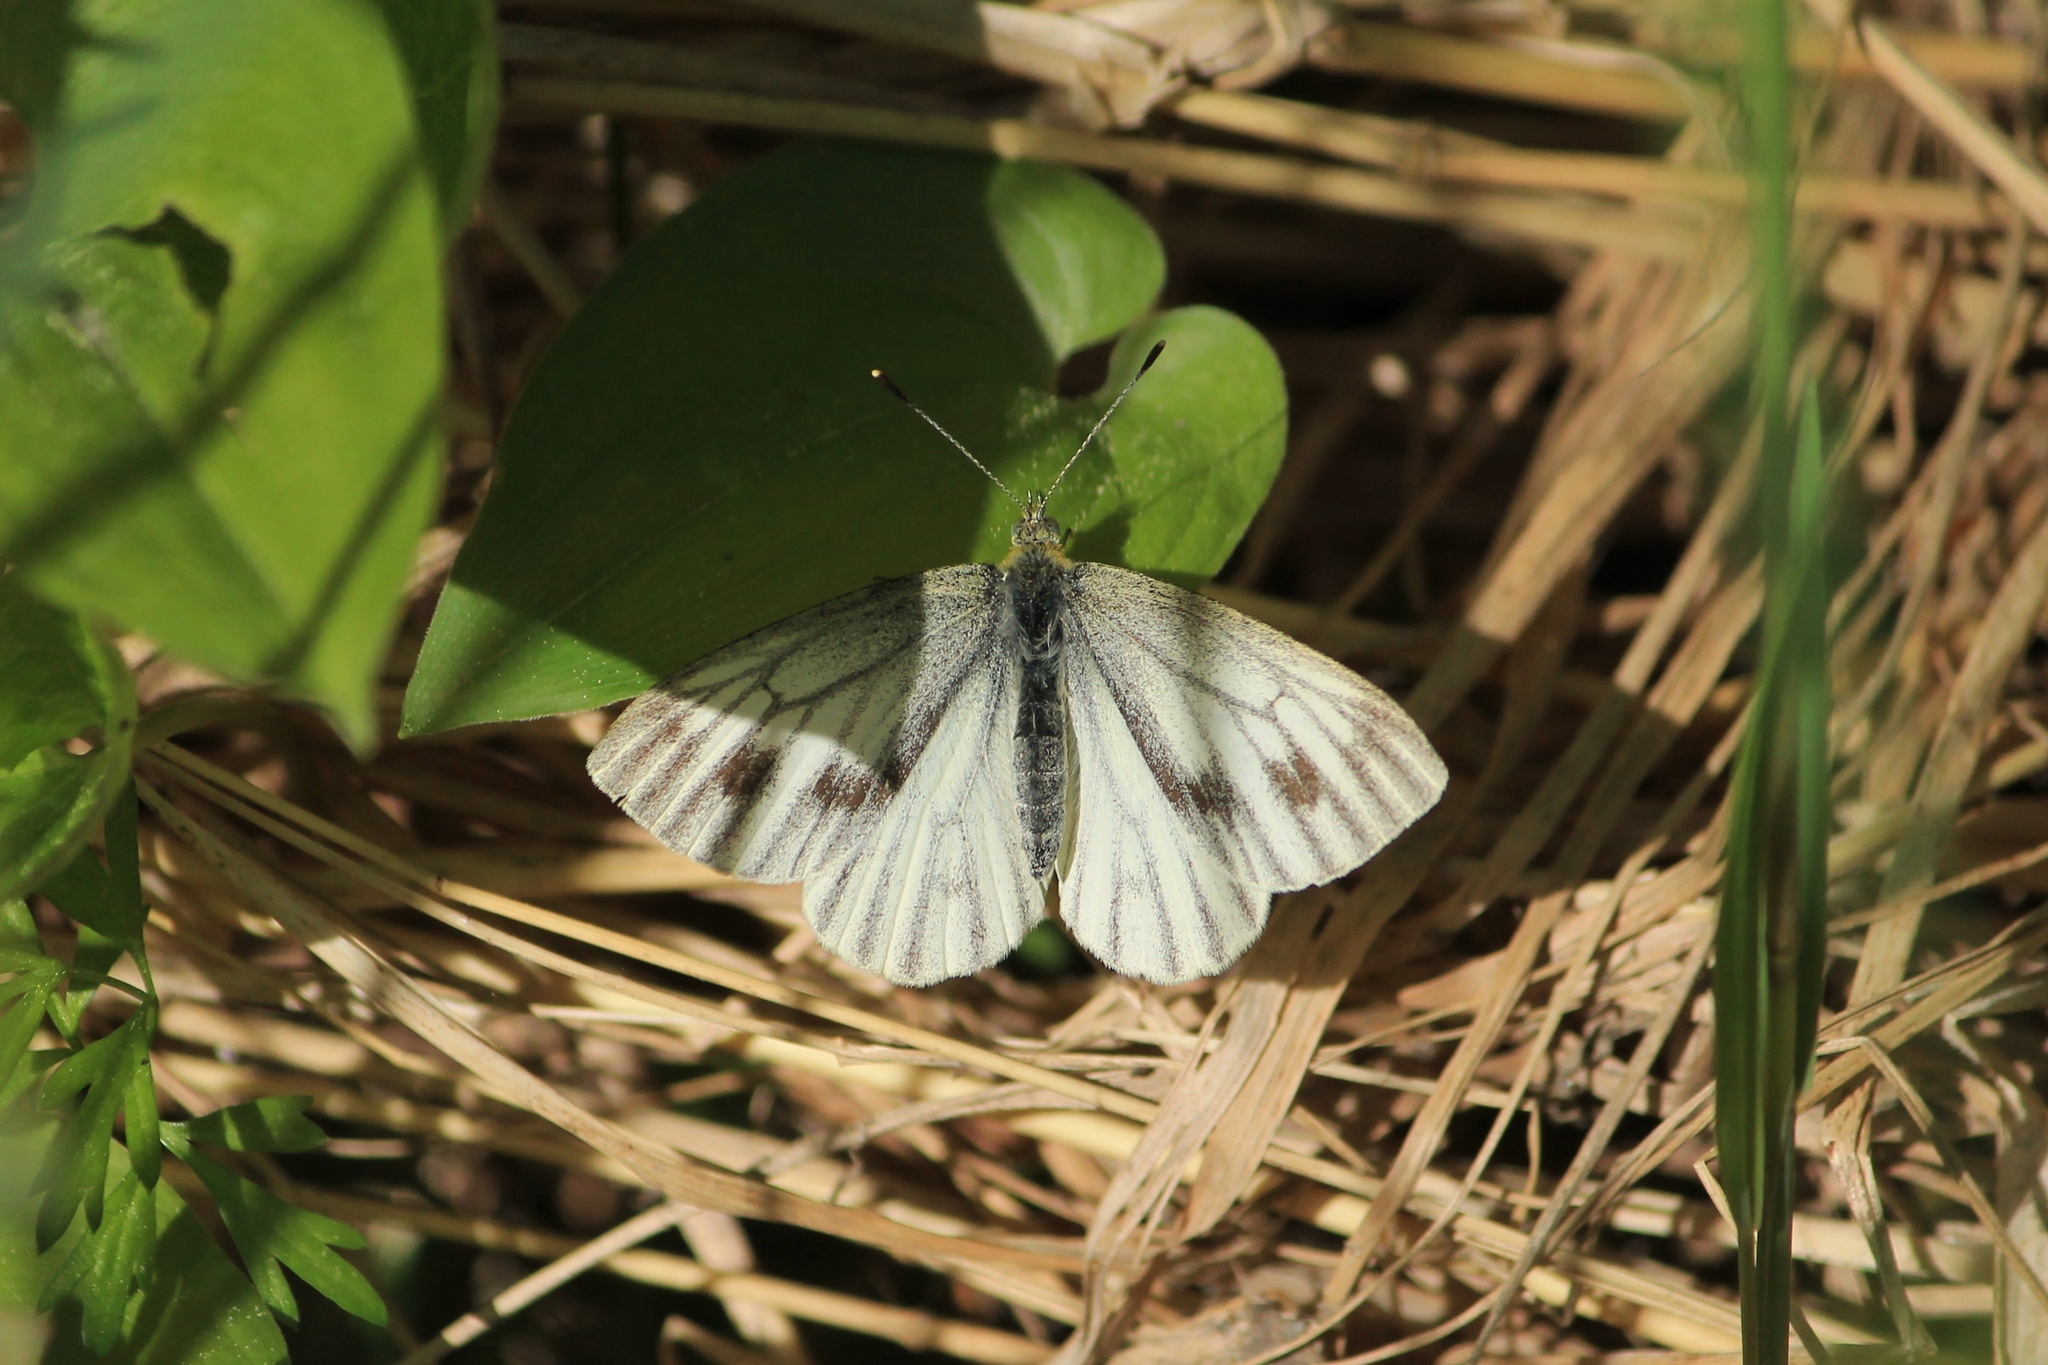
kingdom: Animalia
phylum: Arthropoda
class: Insecta
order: Lepidoptera
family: Pieridae
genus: Pieris
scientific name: Pieris napi
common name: Green-veined white
